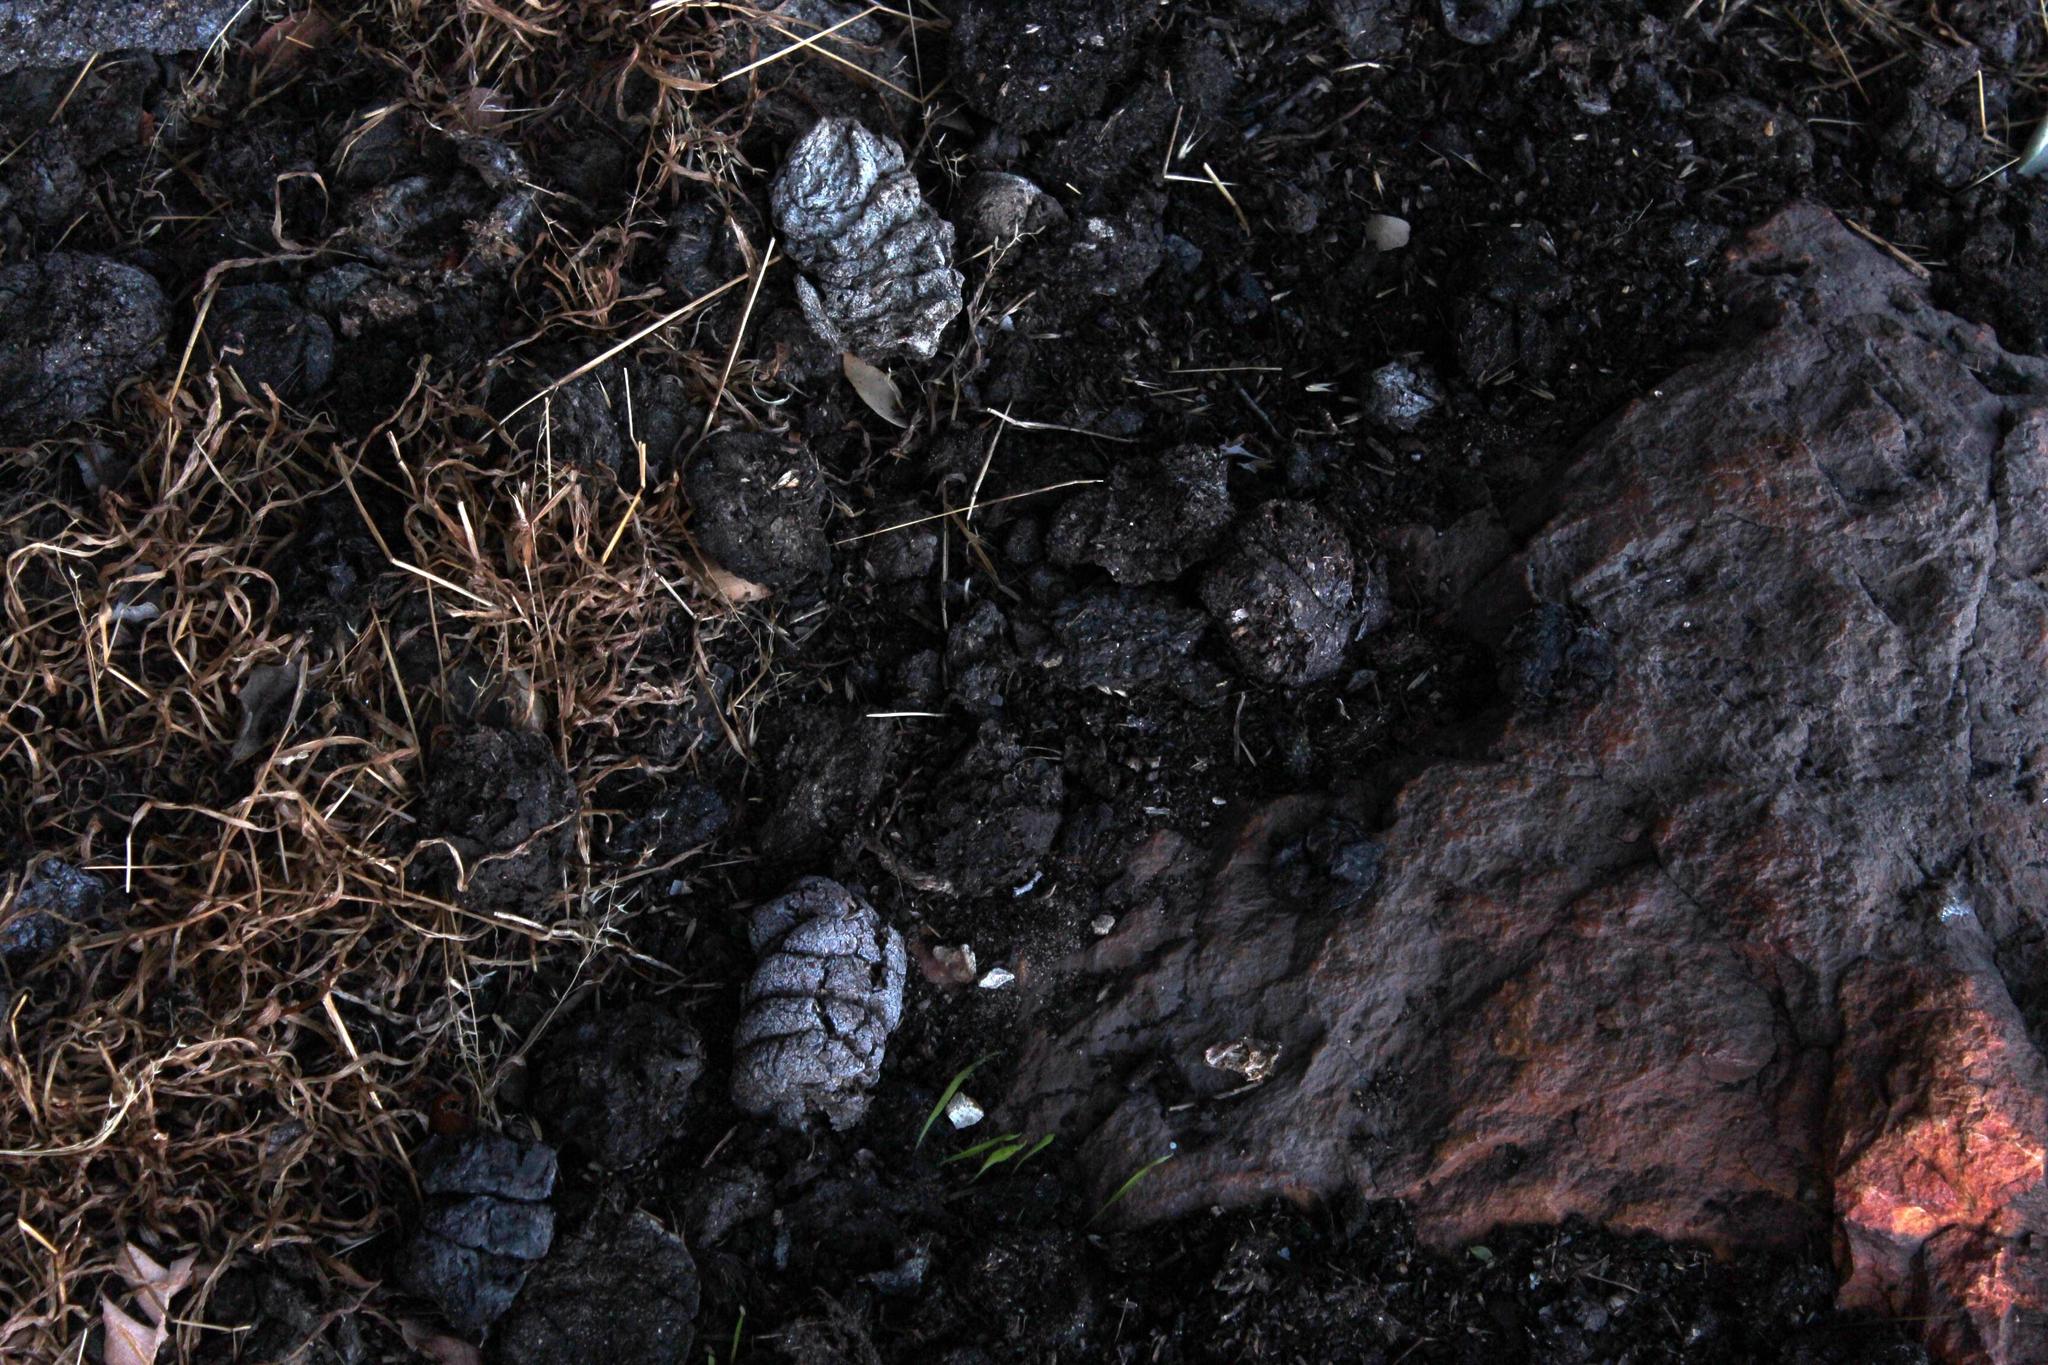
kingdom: Animalia
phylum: Chordata
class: Mammalia
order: Primates
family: Cercopithecidae
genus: Papio
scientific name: Papio ursinus
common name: Chacma baboon
